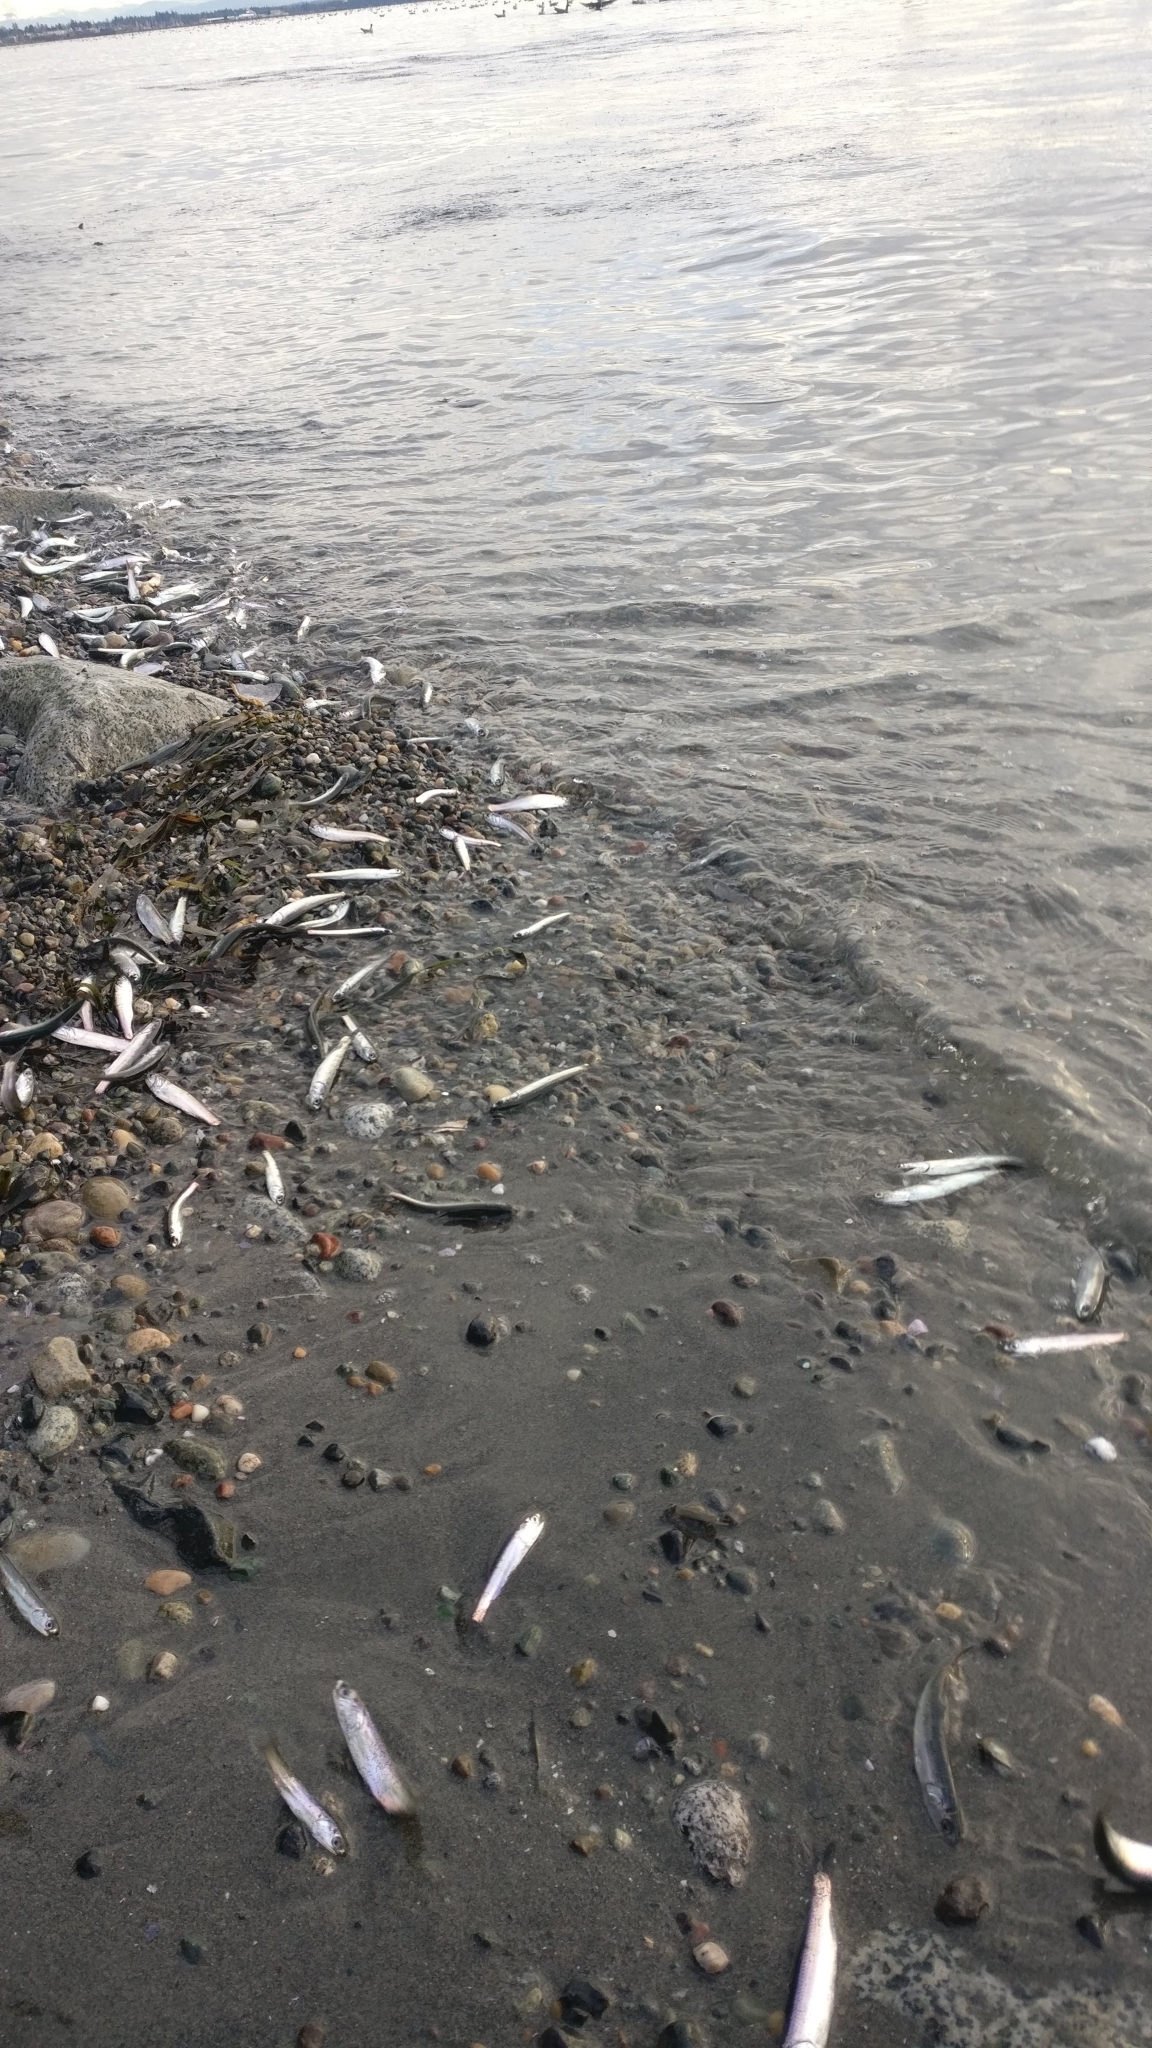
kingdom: Animalia
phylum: Chordata
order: Clupeiformes
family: Engraulidae
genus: Engraulis
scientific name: Engraulis mordax
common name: Northern anchovy
